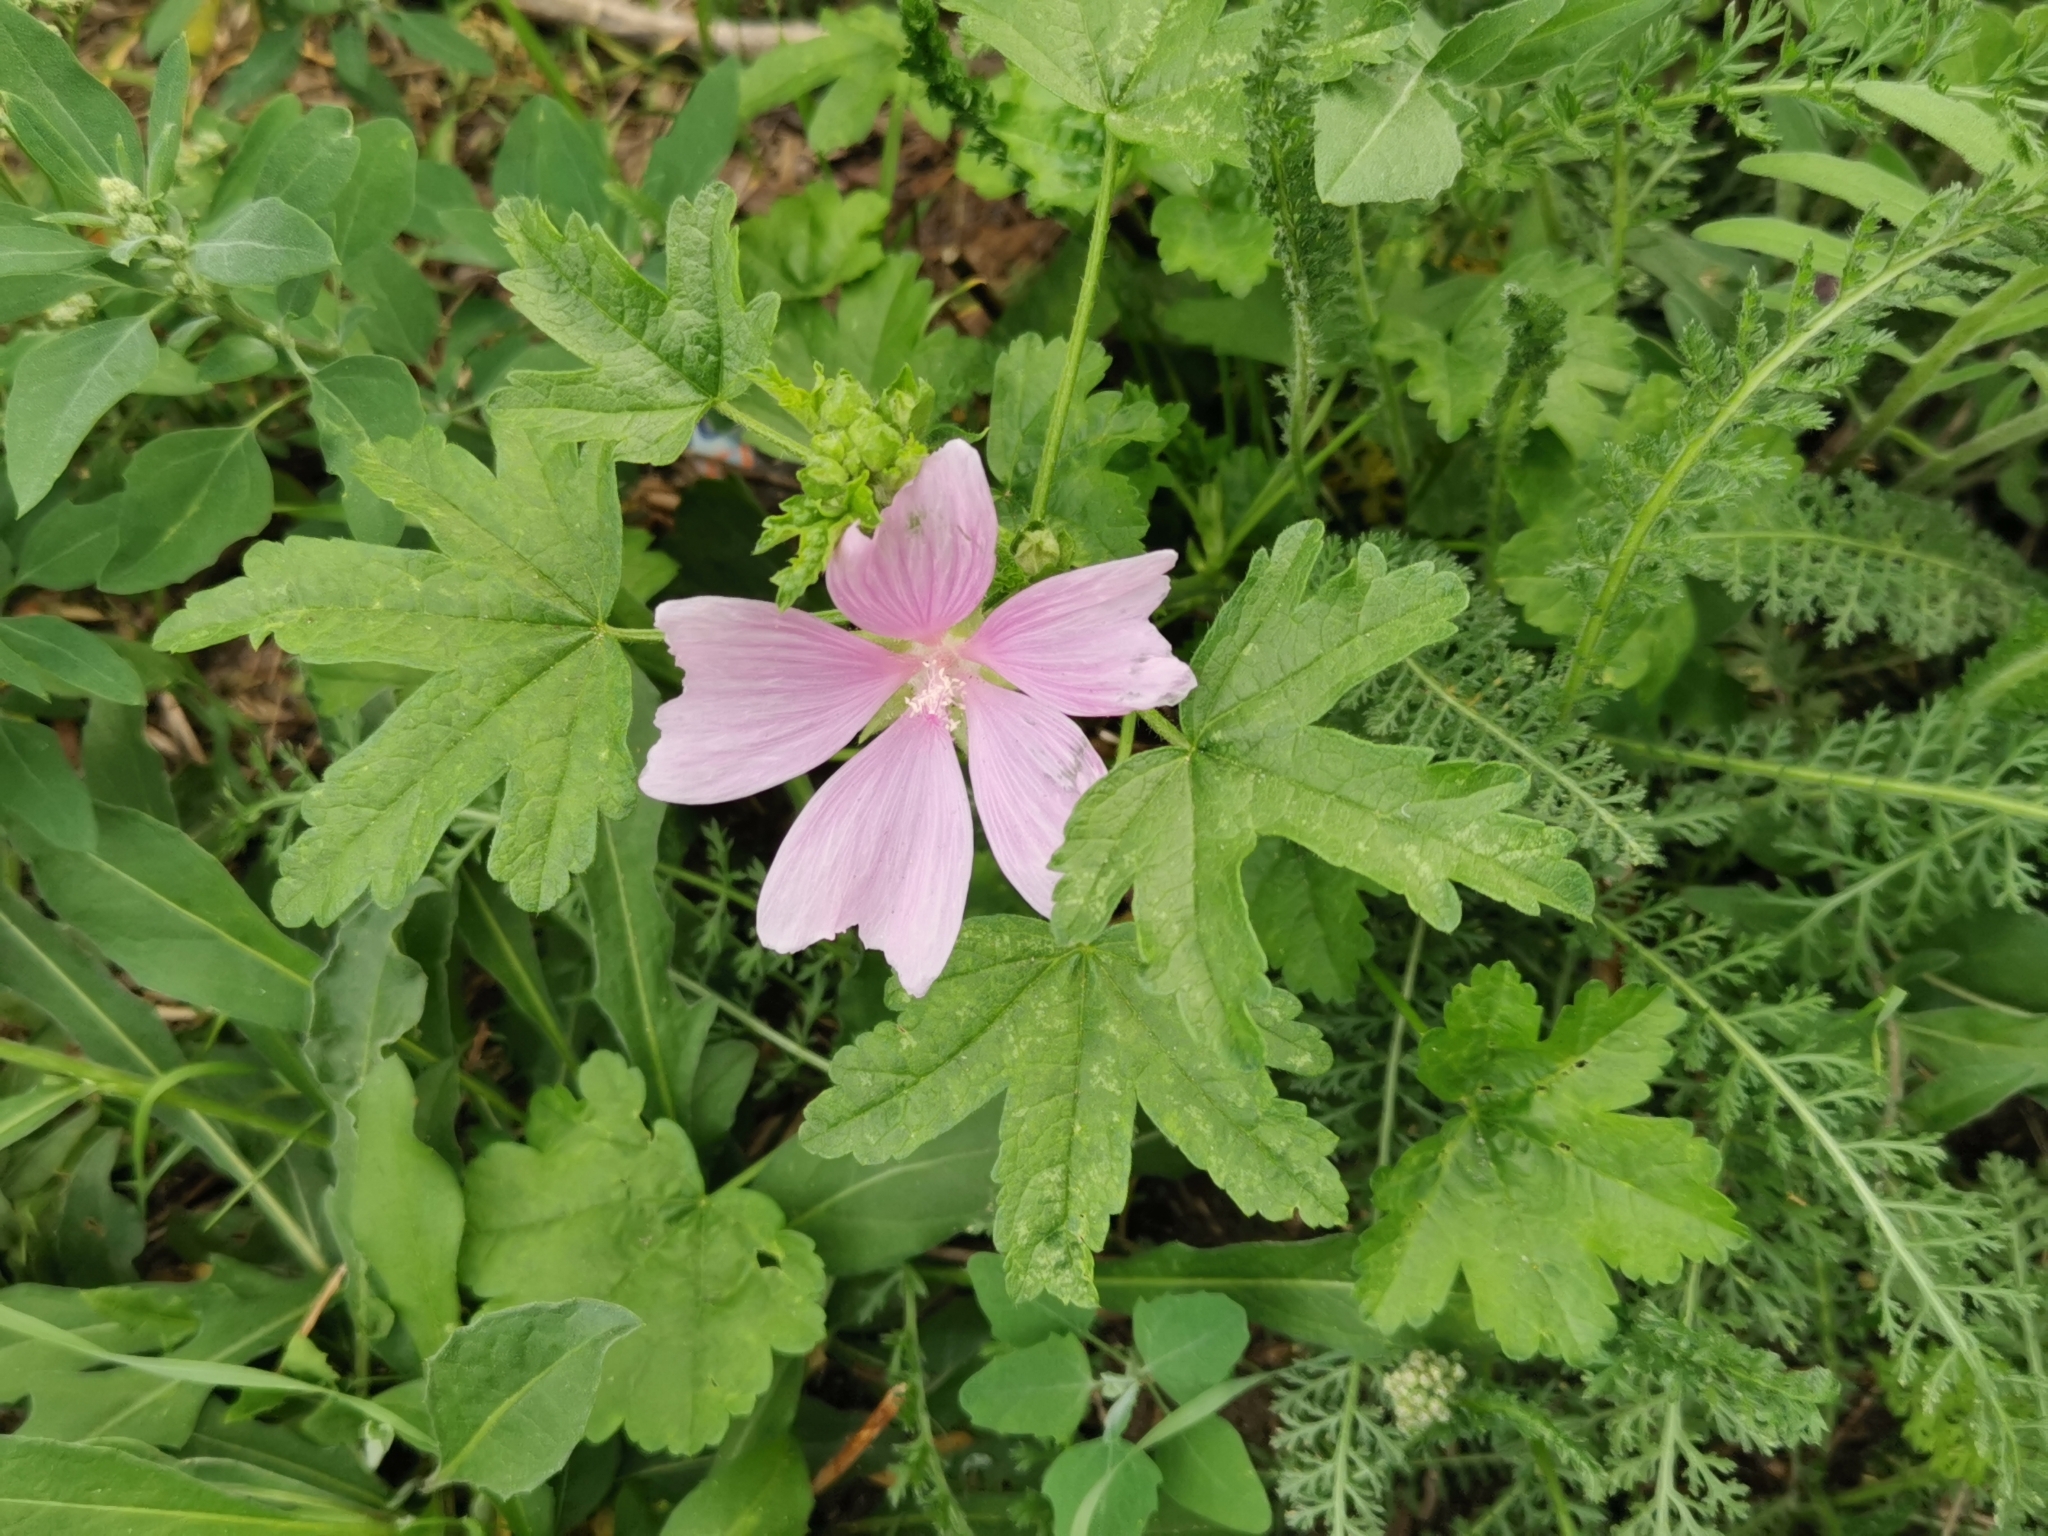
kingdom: Plantae
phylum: Tracheophyta
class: Magnoliopsida
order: Malvales
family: Malvaceae
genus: Malva
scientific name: Malva alcea
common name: Greater musk-mallow
